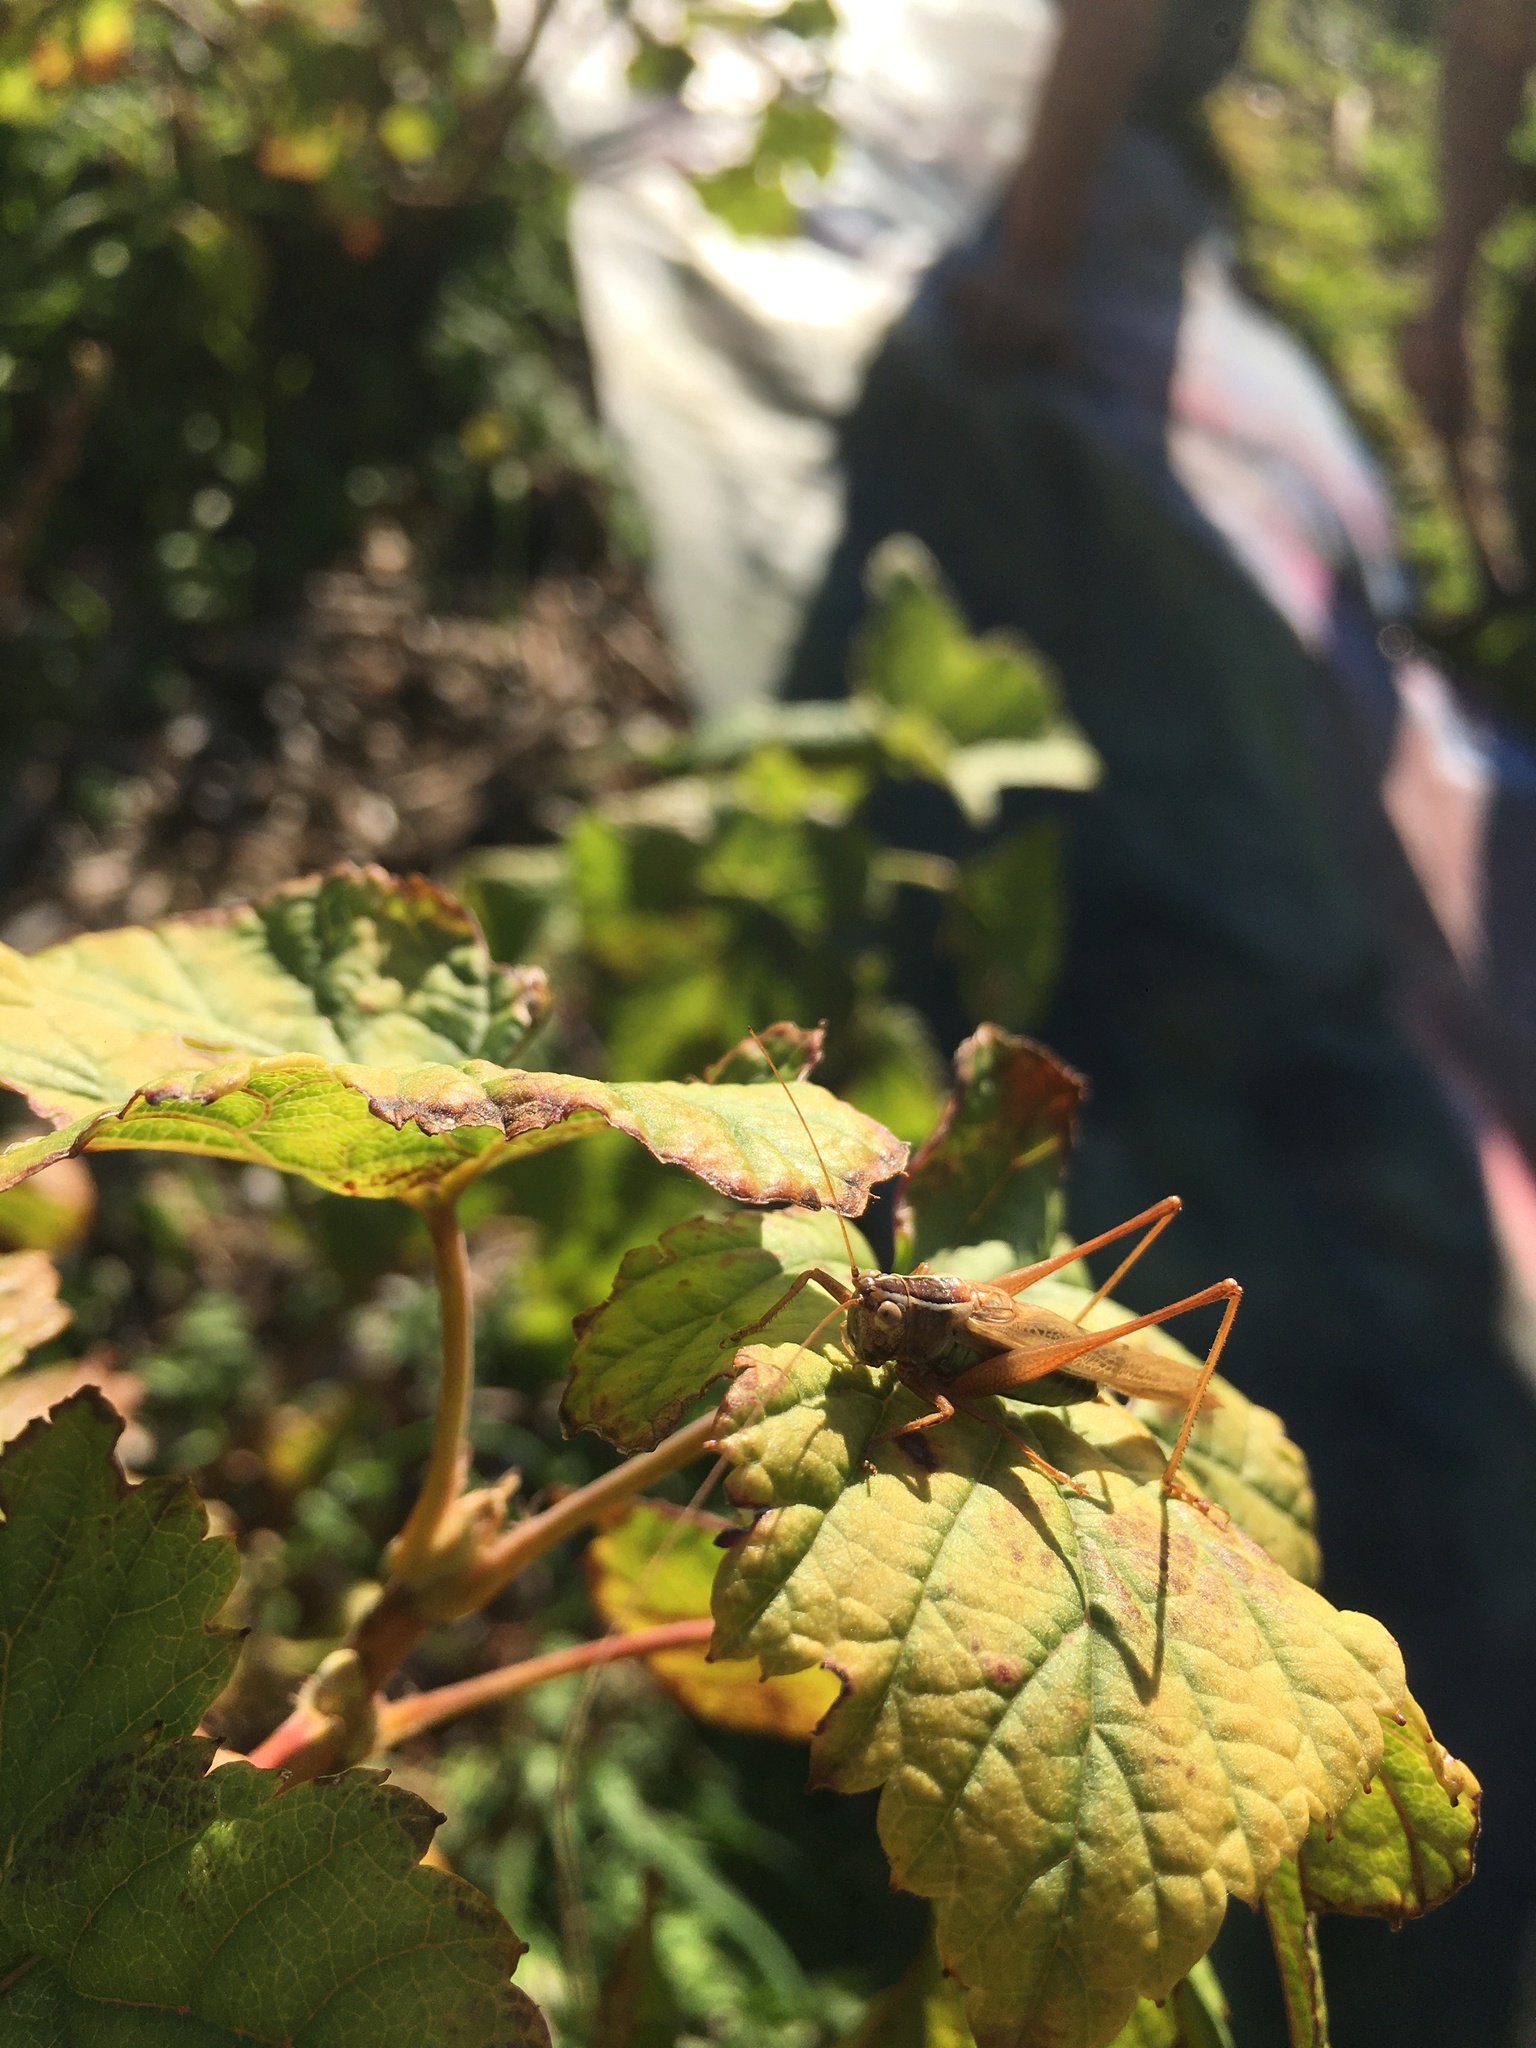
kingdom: Animalia
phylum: Arthropoda
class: Insecta
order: Orthoptera
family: Tettigoniidae
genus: Conocephalus
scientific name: Conocephalus albescens
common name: Whitish meadow katydid
